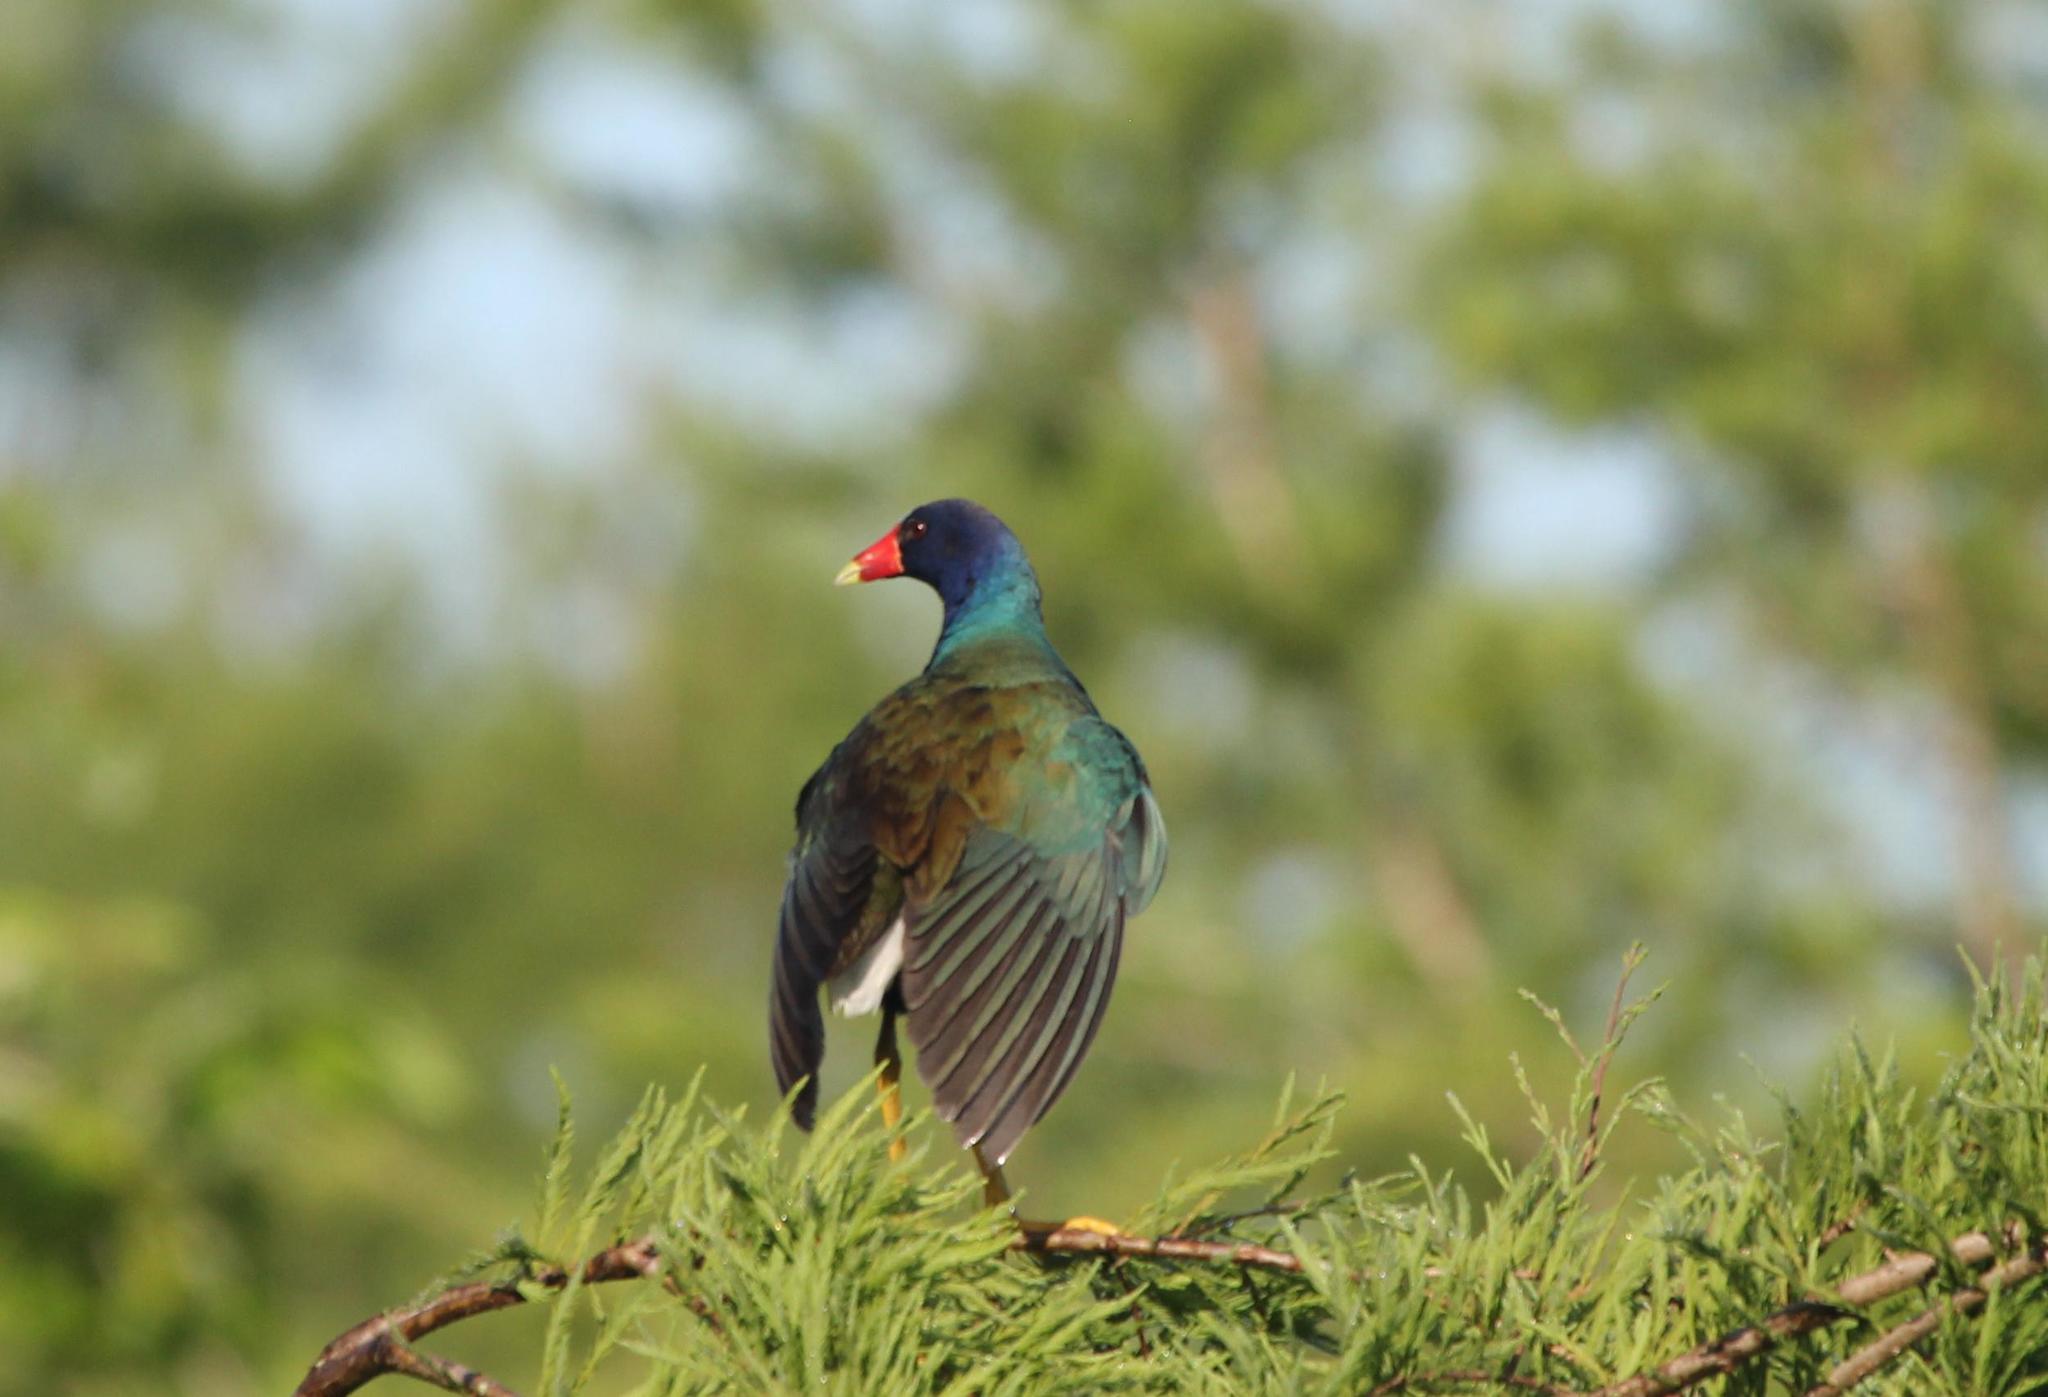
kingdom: Animalia
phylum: Chordata
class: Aves
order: Gruiformes
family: Rallidae
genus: Porphyrio
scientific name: Porphyrio martinica
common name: Purple gallinule
